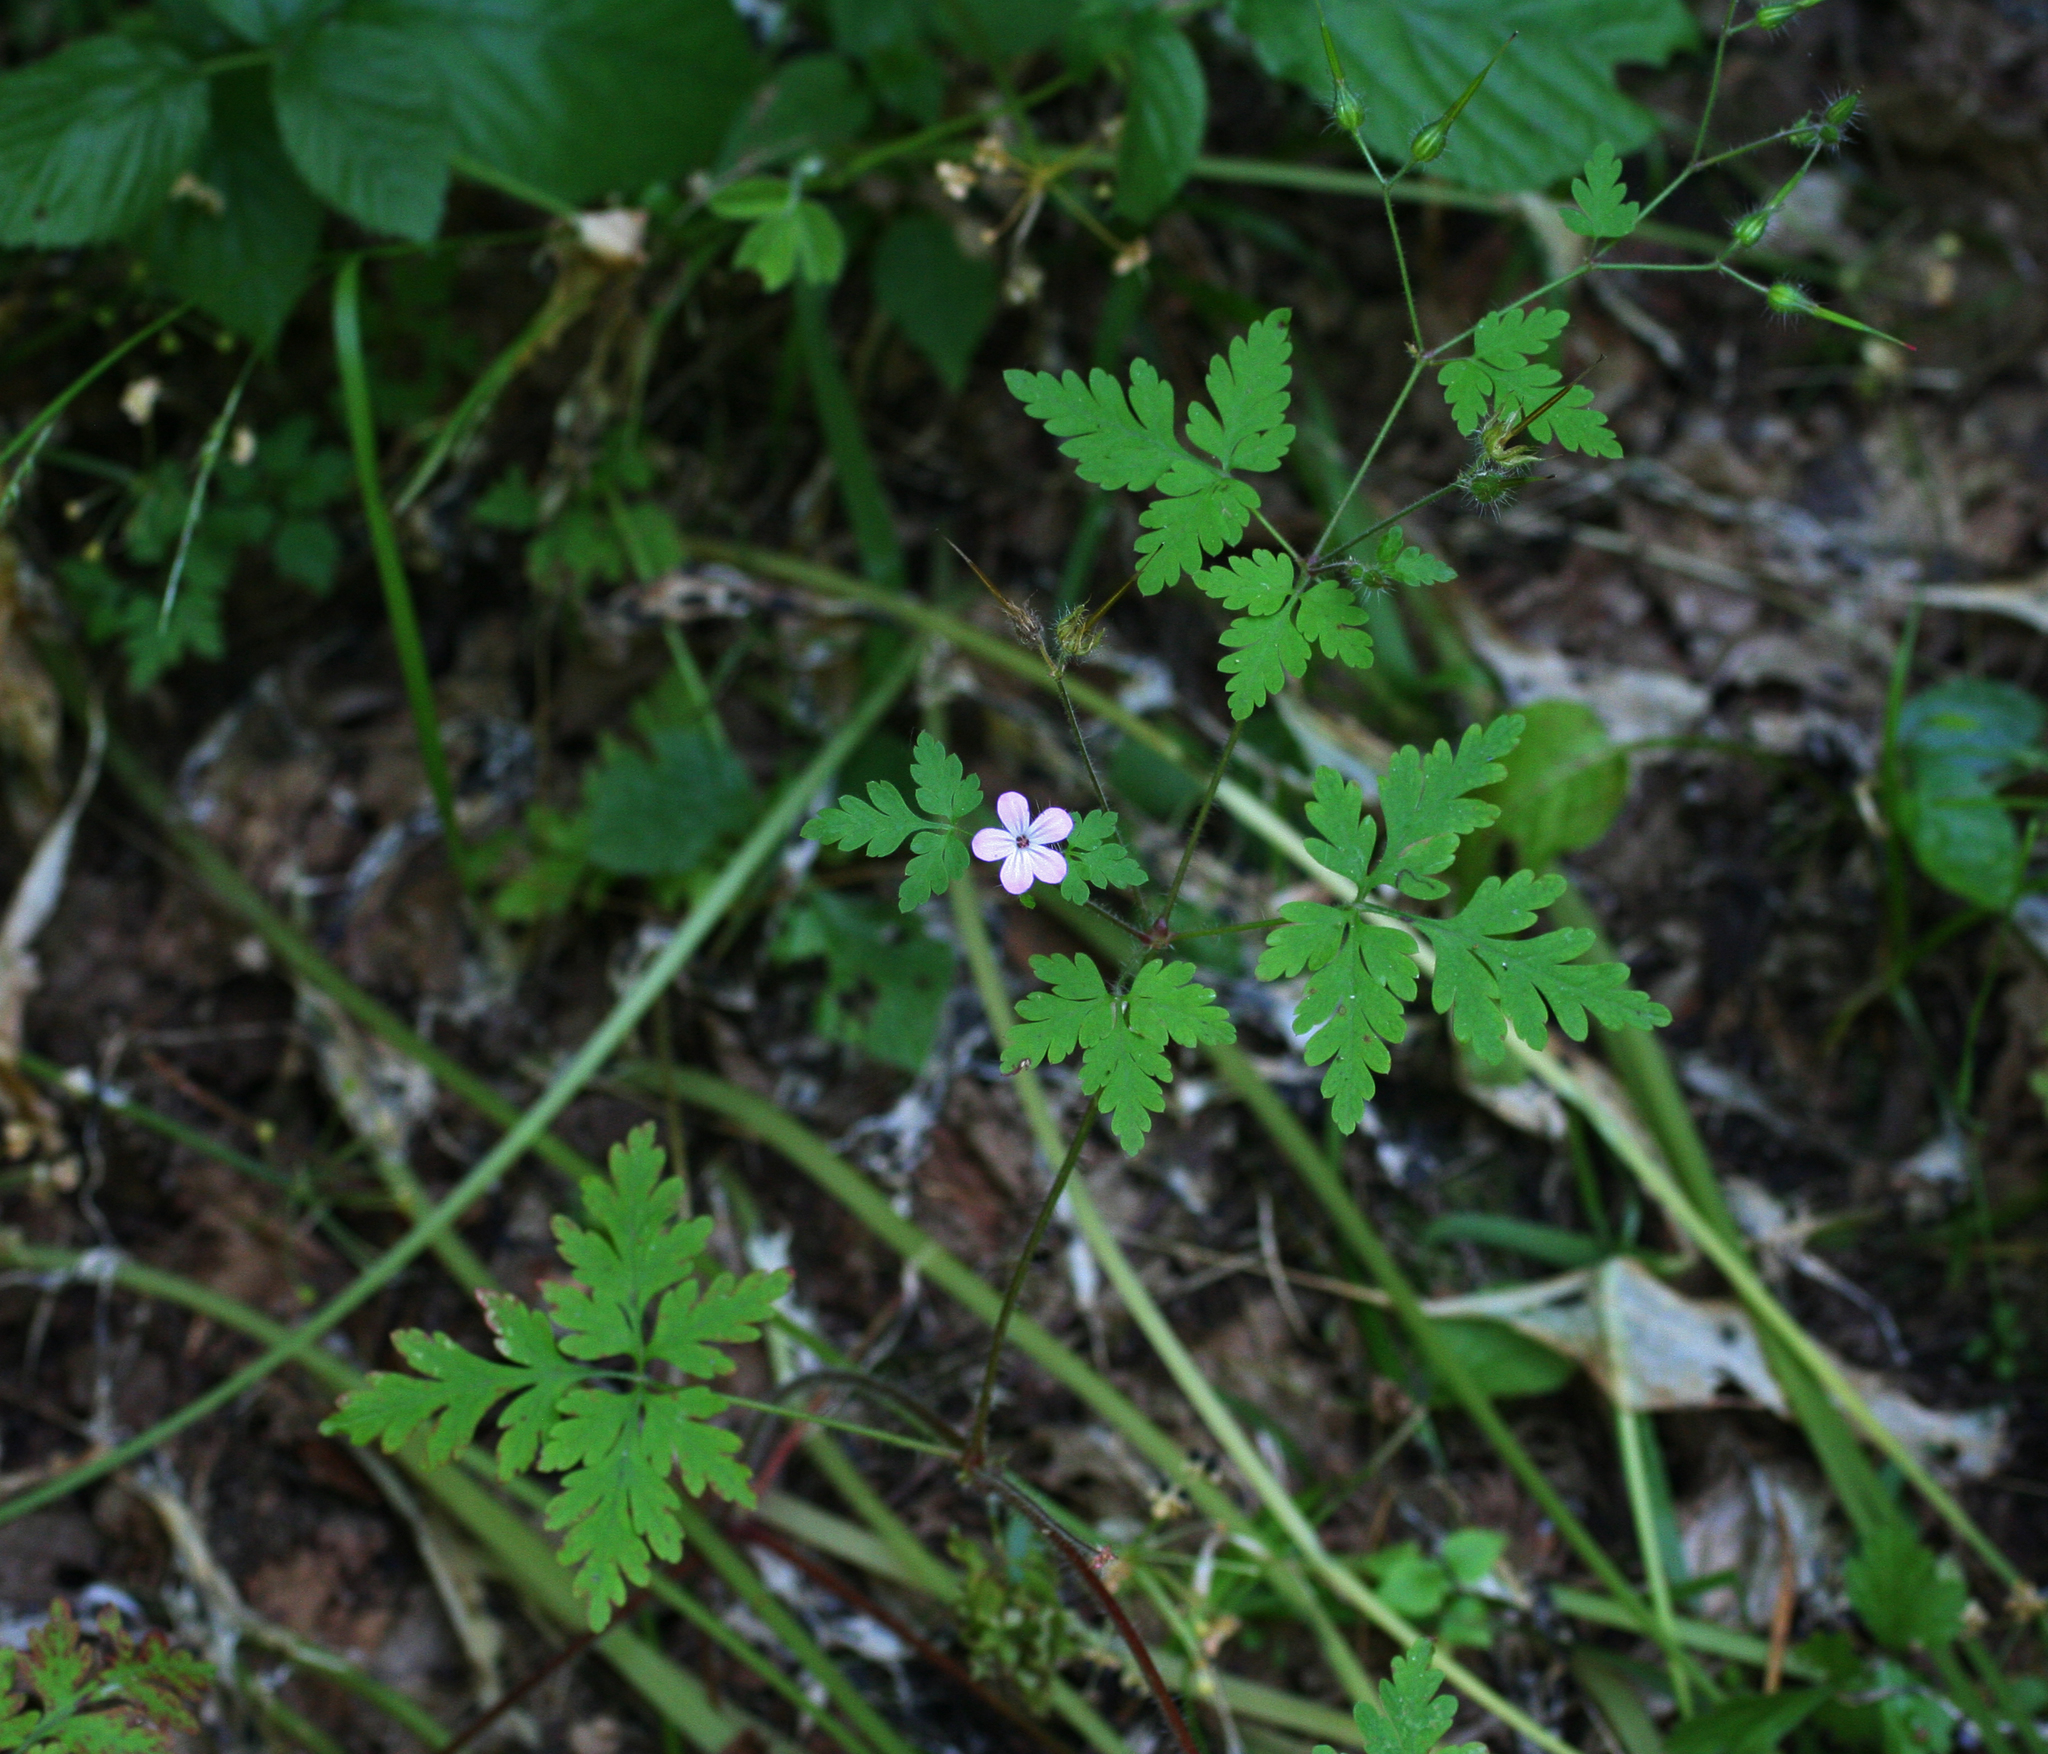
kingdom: Plantae
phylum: Tracheophyta
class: Magnoliopsida
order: Geraniales
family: Geraniaceae
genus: Geranium
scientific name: Geranium robertianum
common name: Herb-robert
